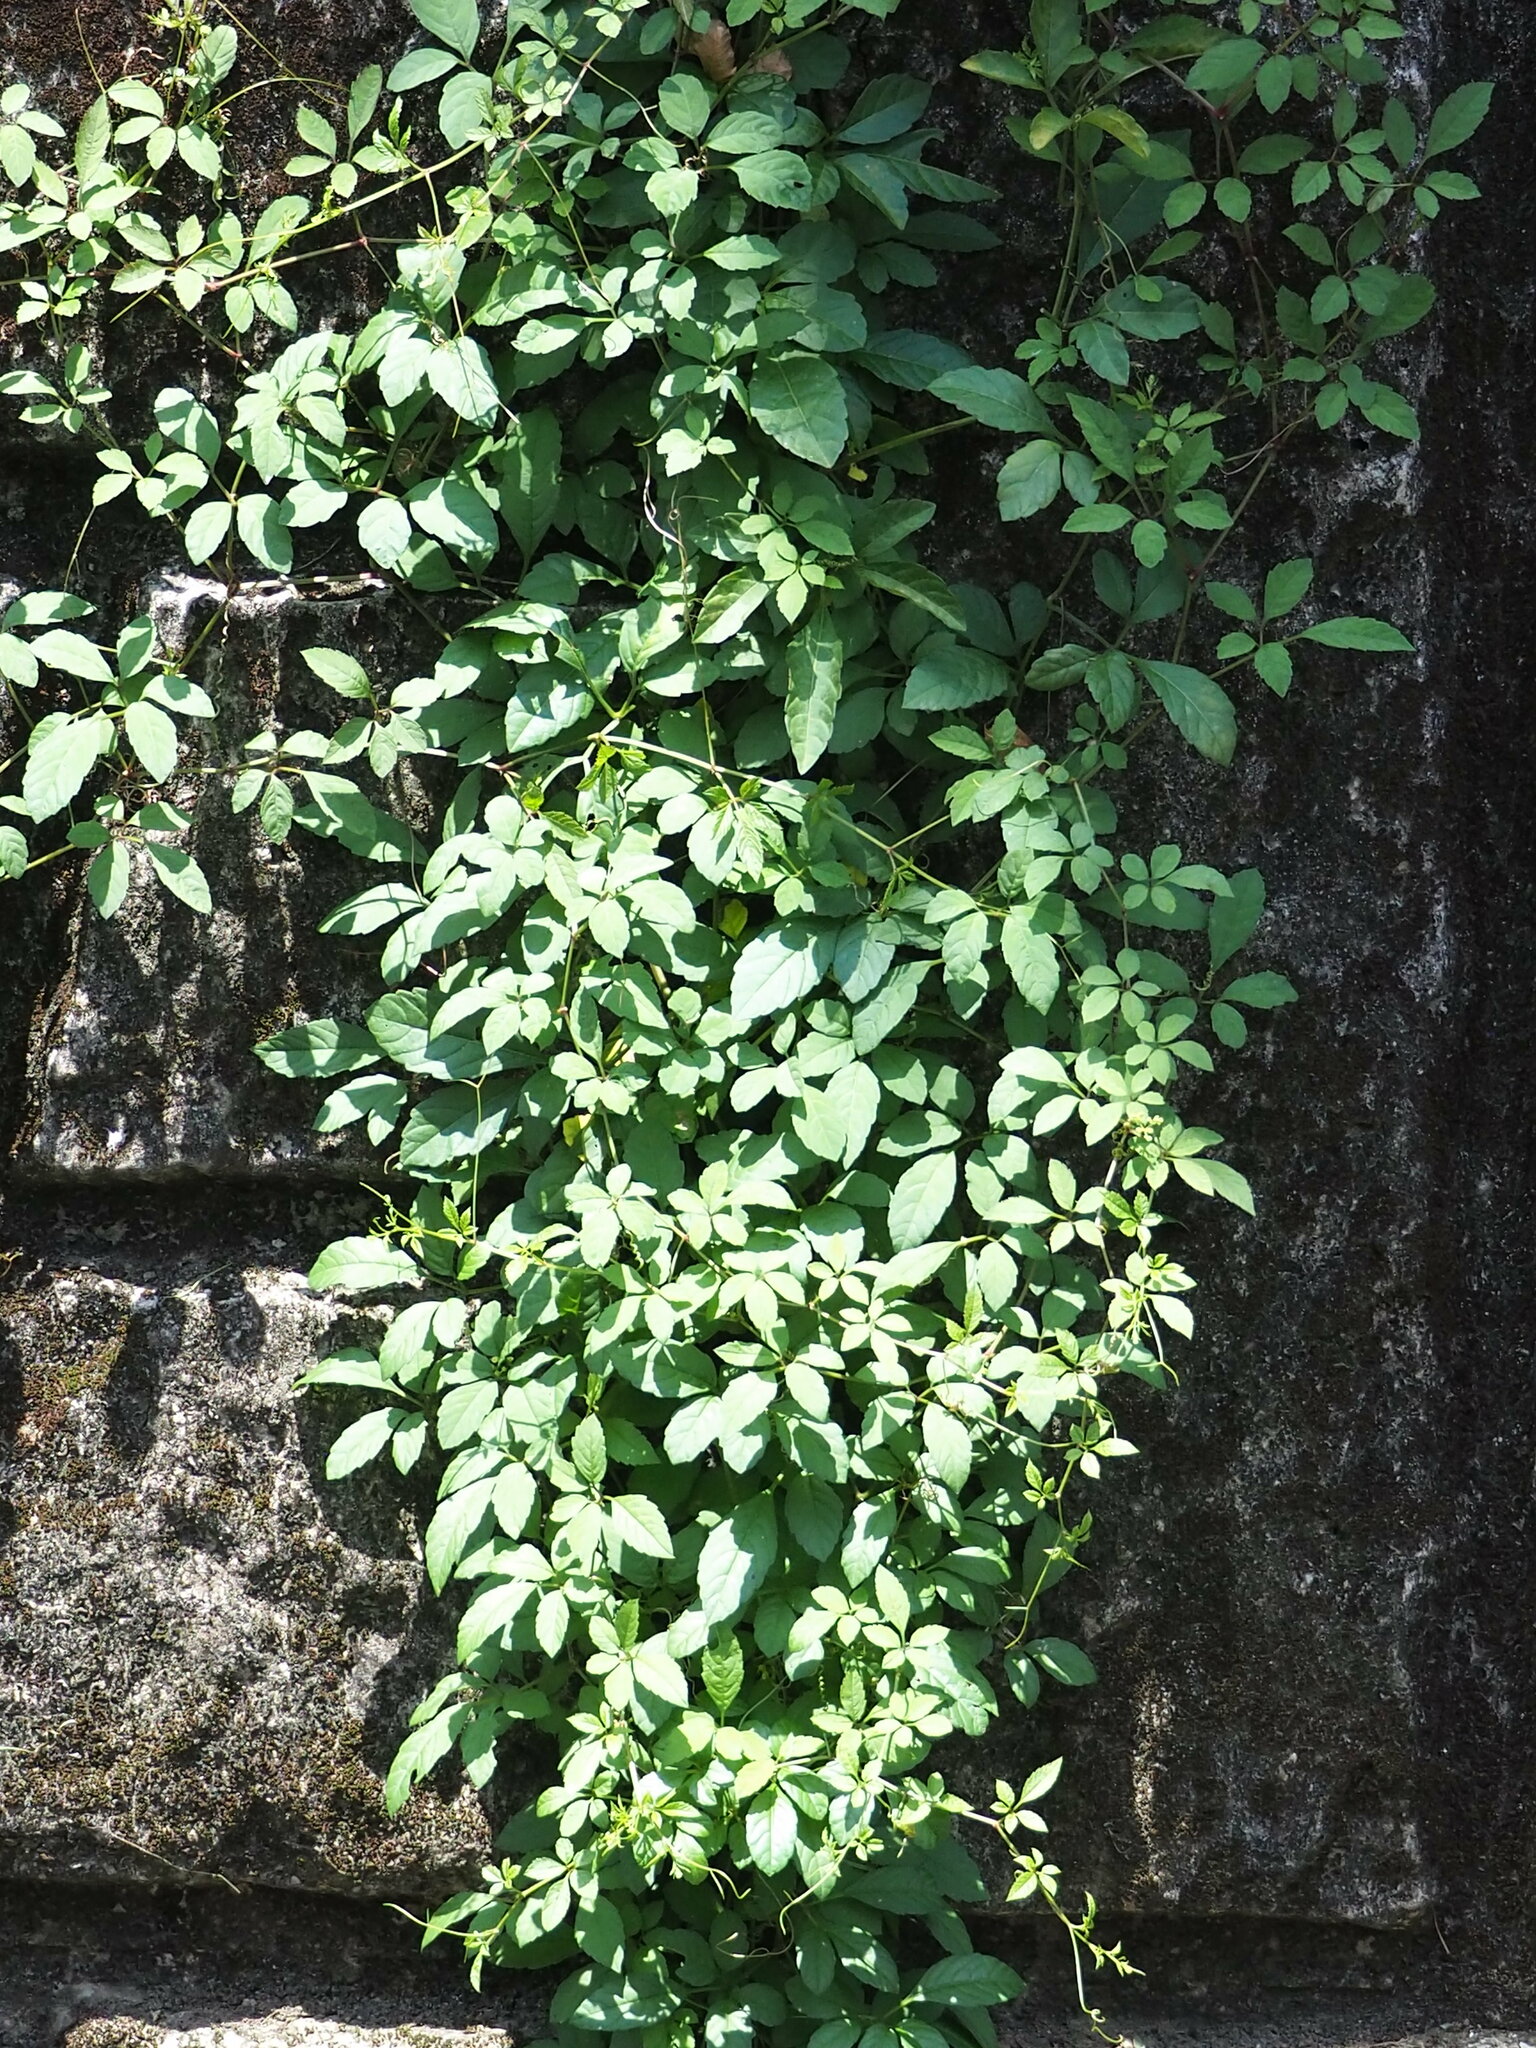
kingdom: Plantae
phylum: Tracheophyta
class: Magnoliopsida
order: Vitales
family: Vitaceae
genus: Causonis
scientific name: Causonis japonica
